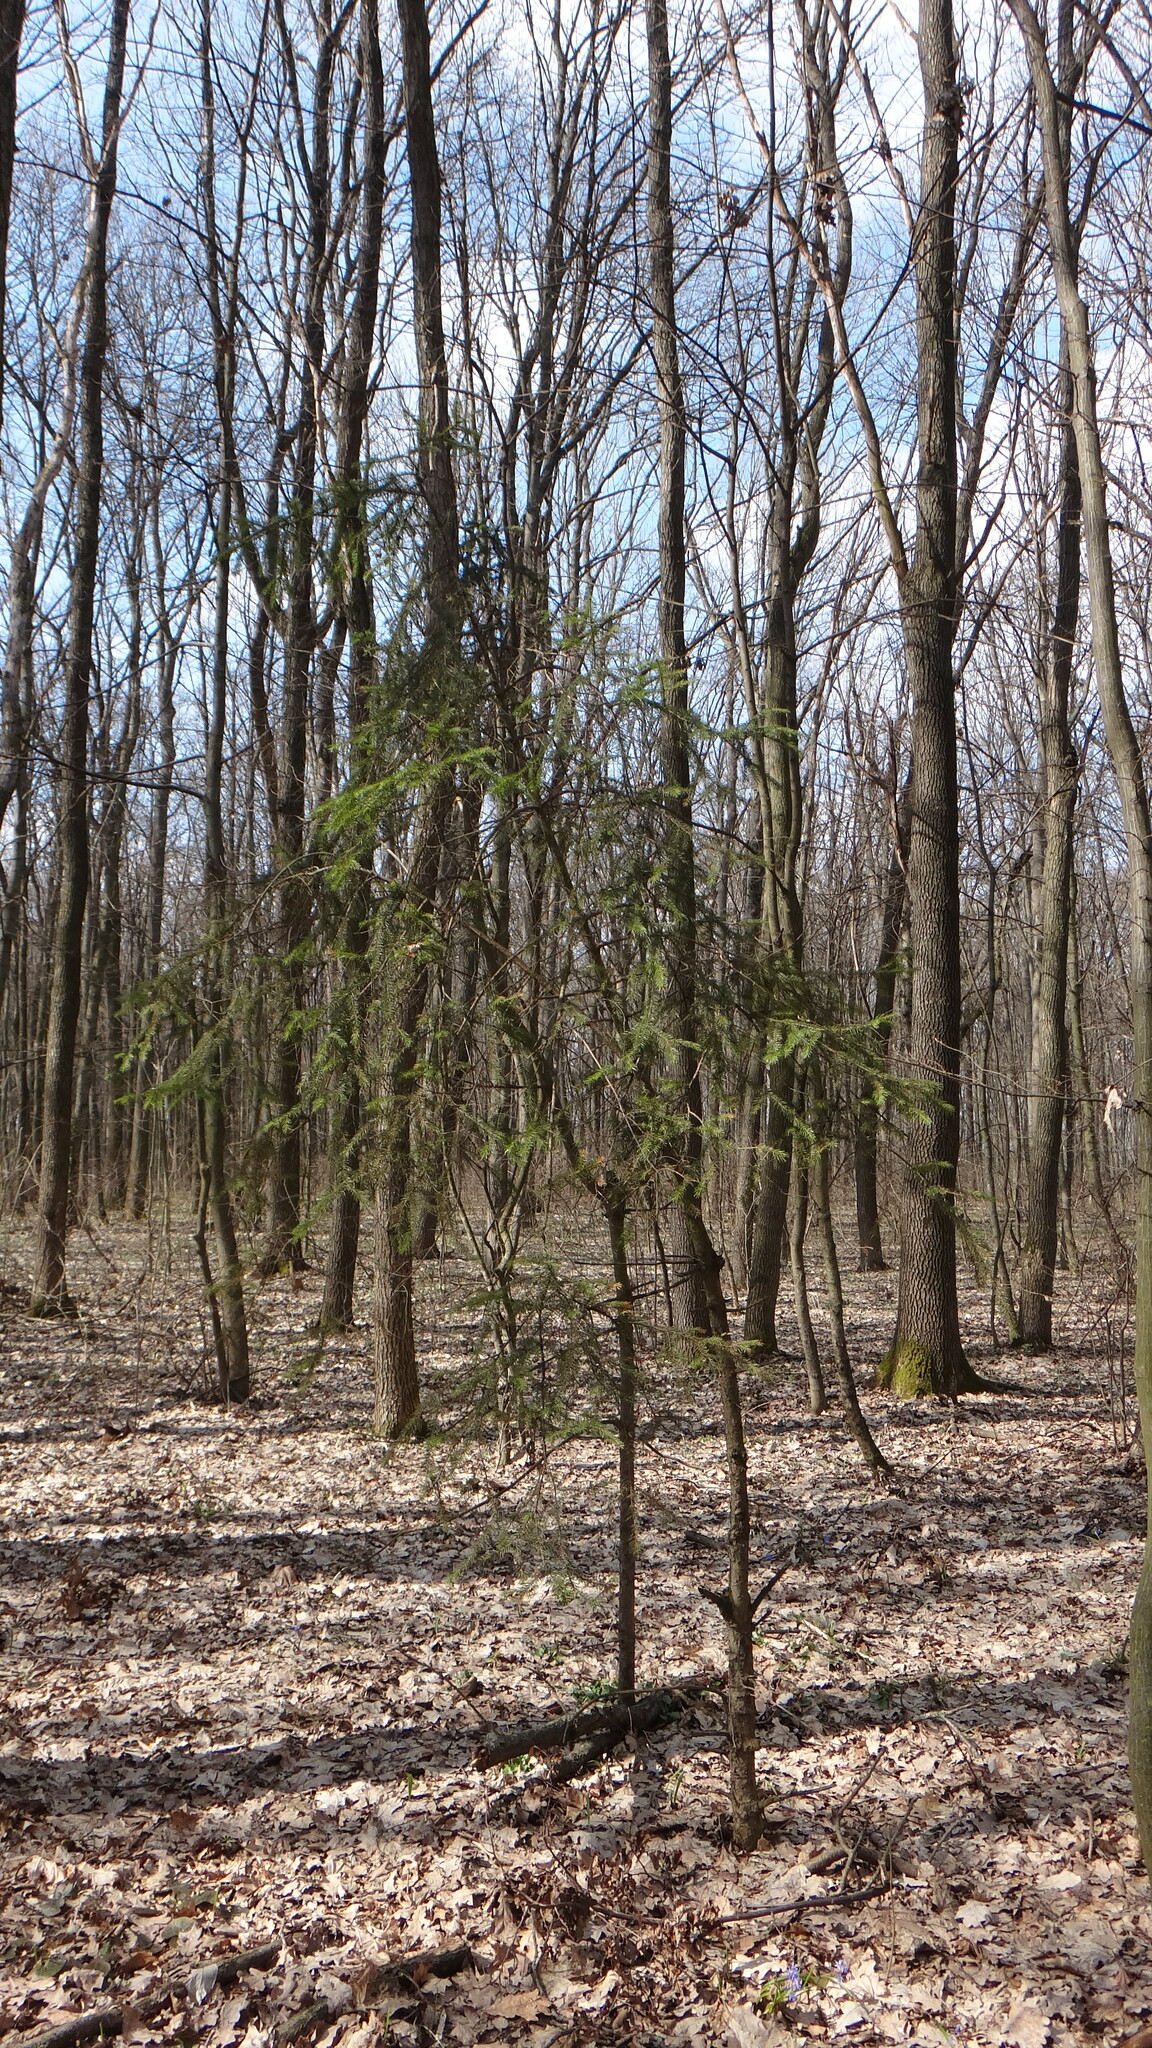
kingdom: Plantae
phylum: Tracheophyta
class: Pinopsida
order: Pinales
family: Pinaceae
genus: Picea
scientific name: Picea abies
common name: Norway spruce
